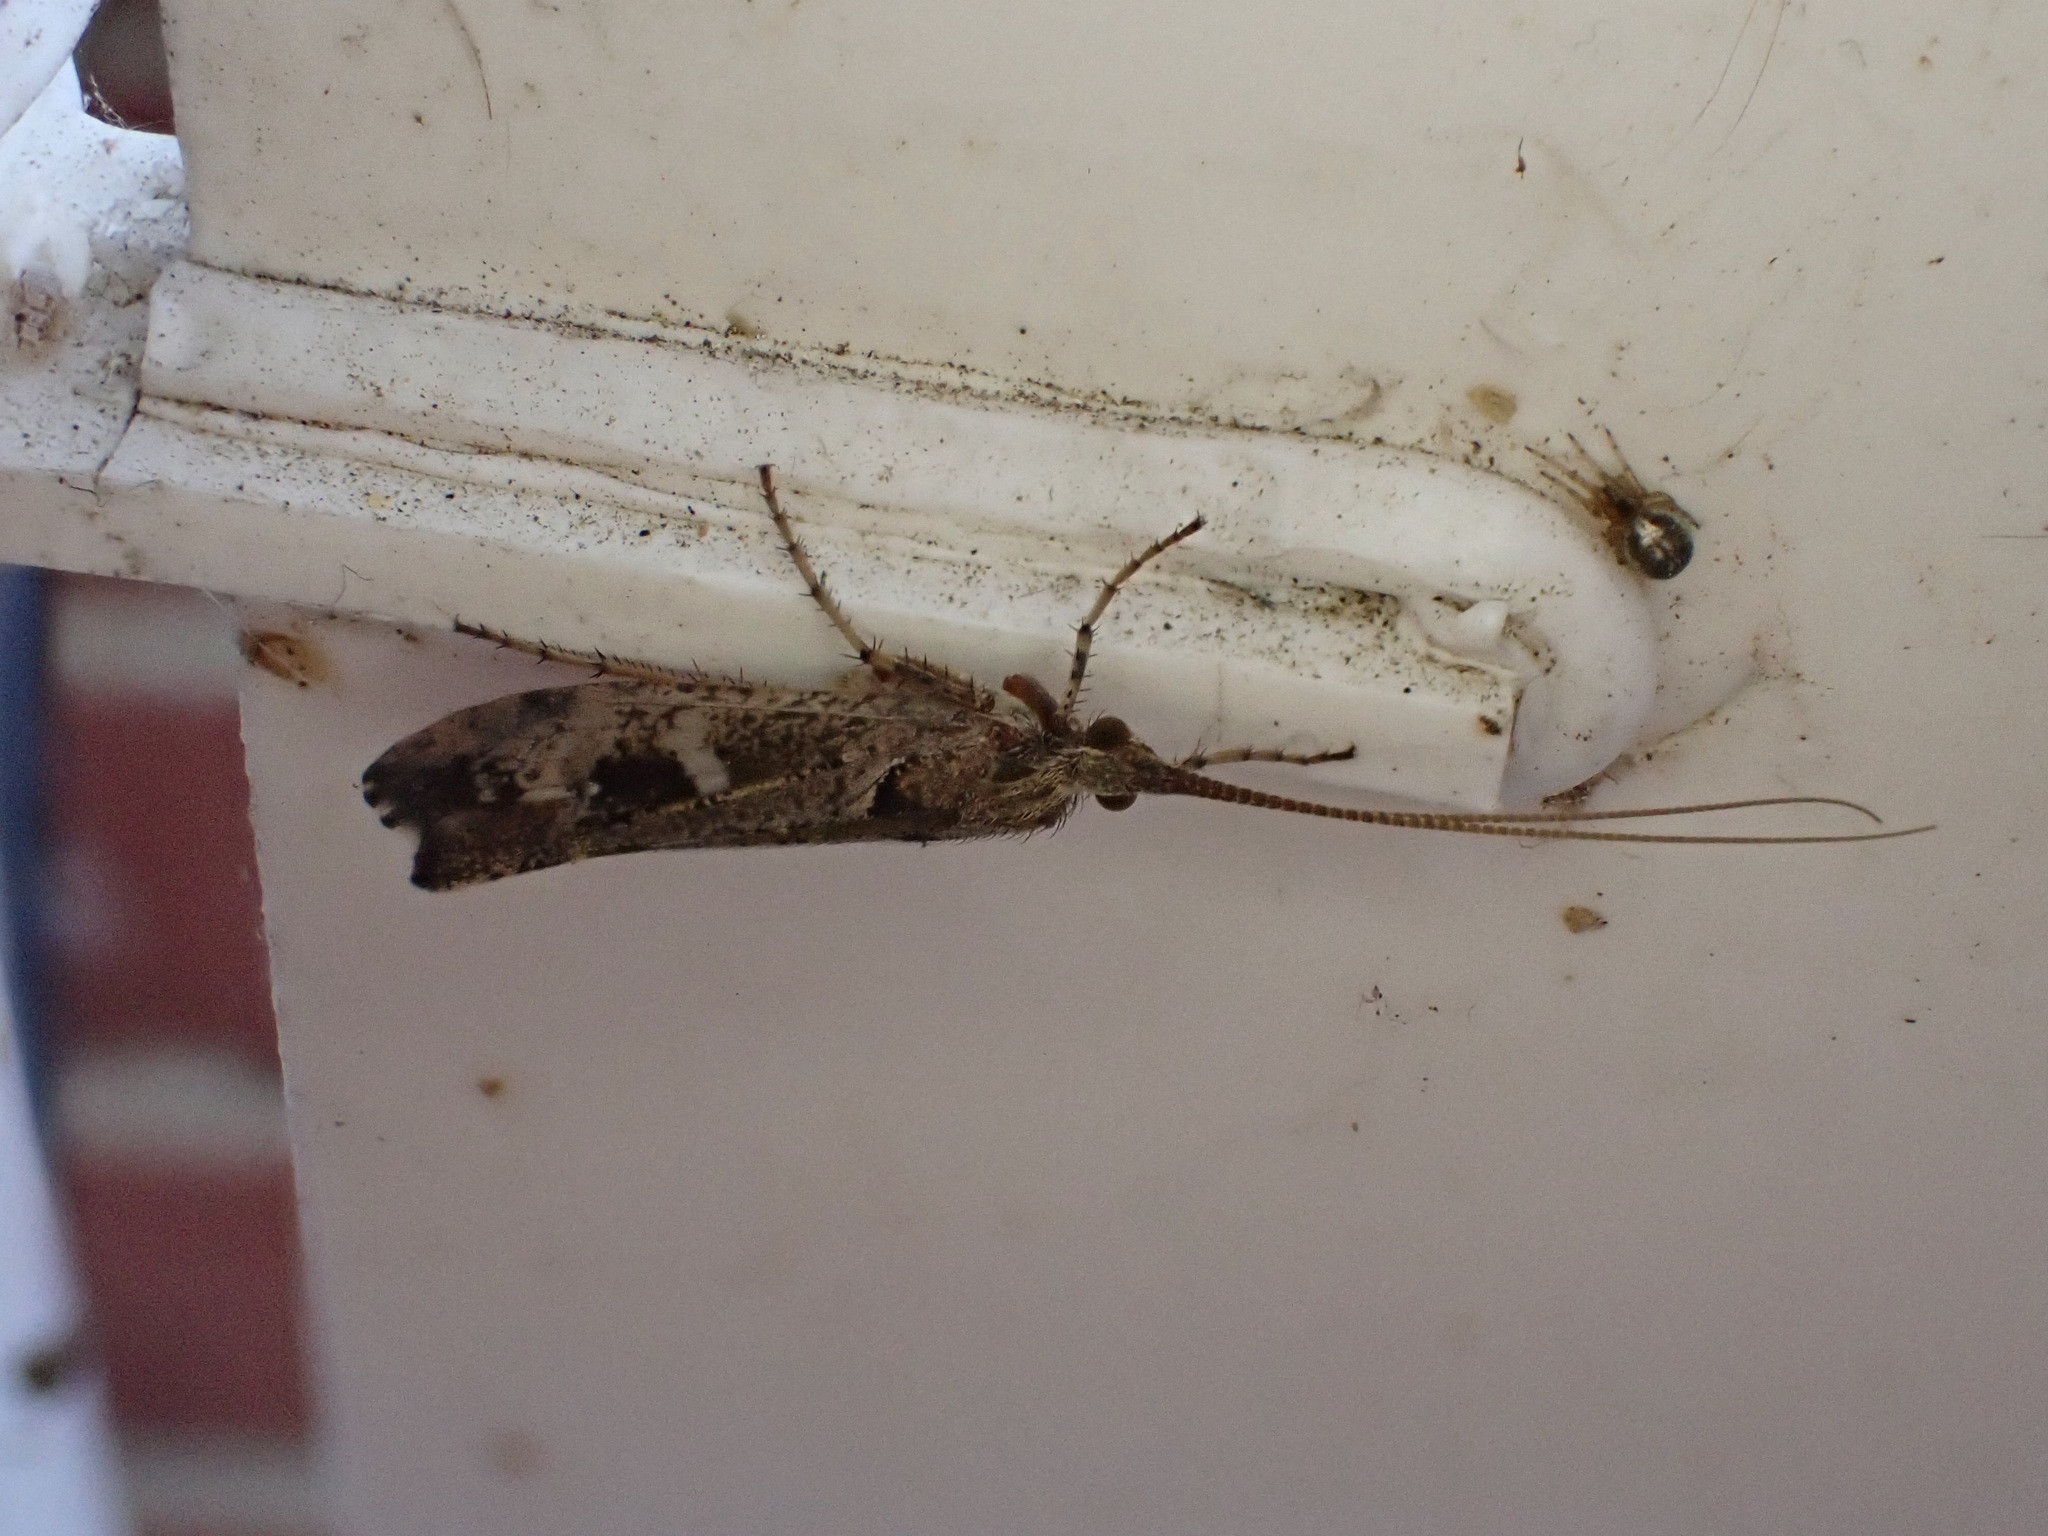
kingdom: Animalia
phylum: Arthropoda
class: Insecta
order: Trichoptera
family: Limnephilidae
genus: Glyphotaelius
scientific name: Glyphotaelius pellucidus
